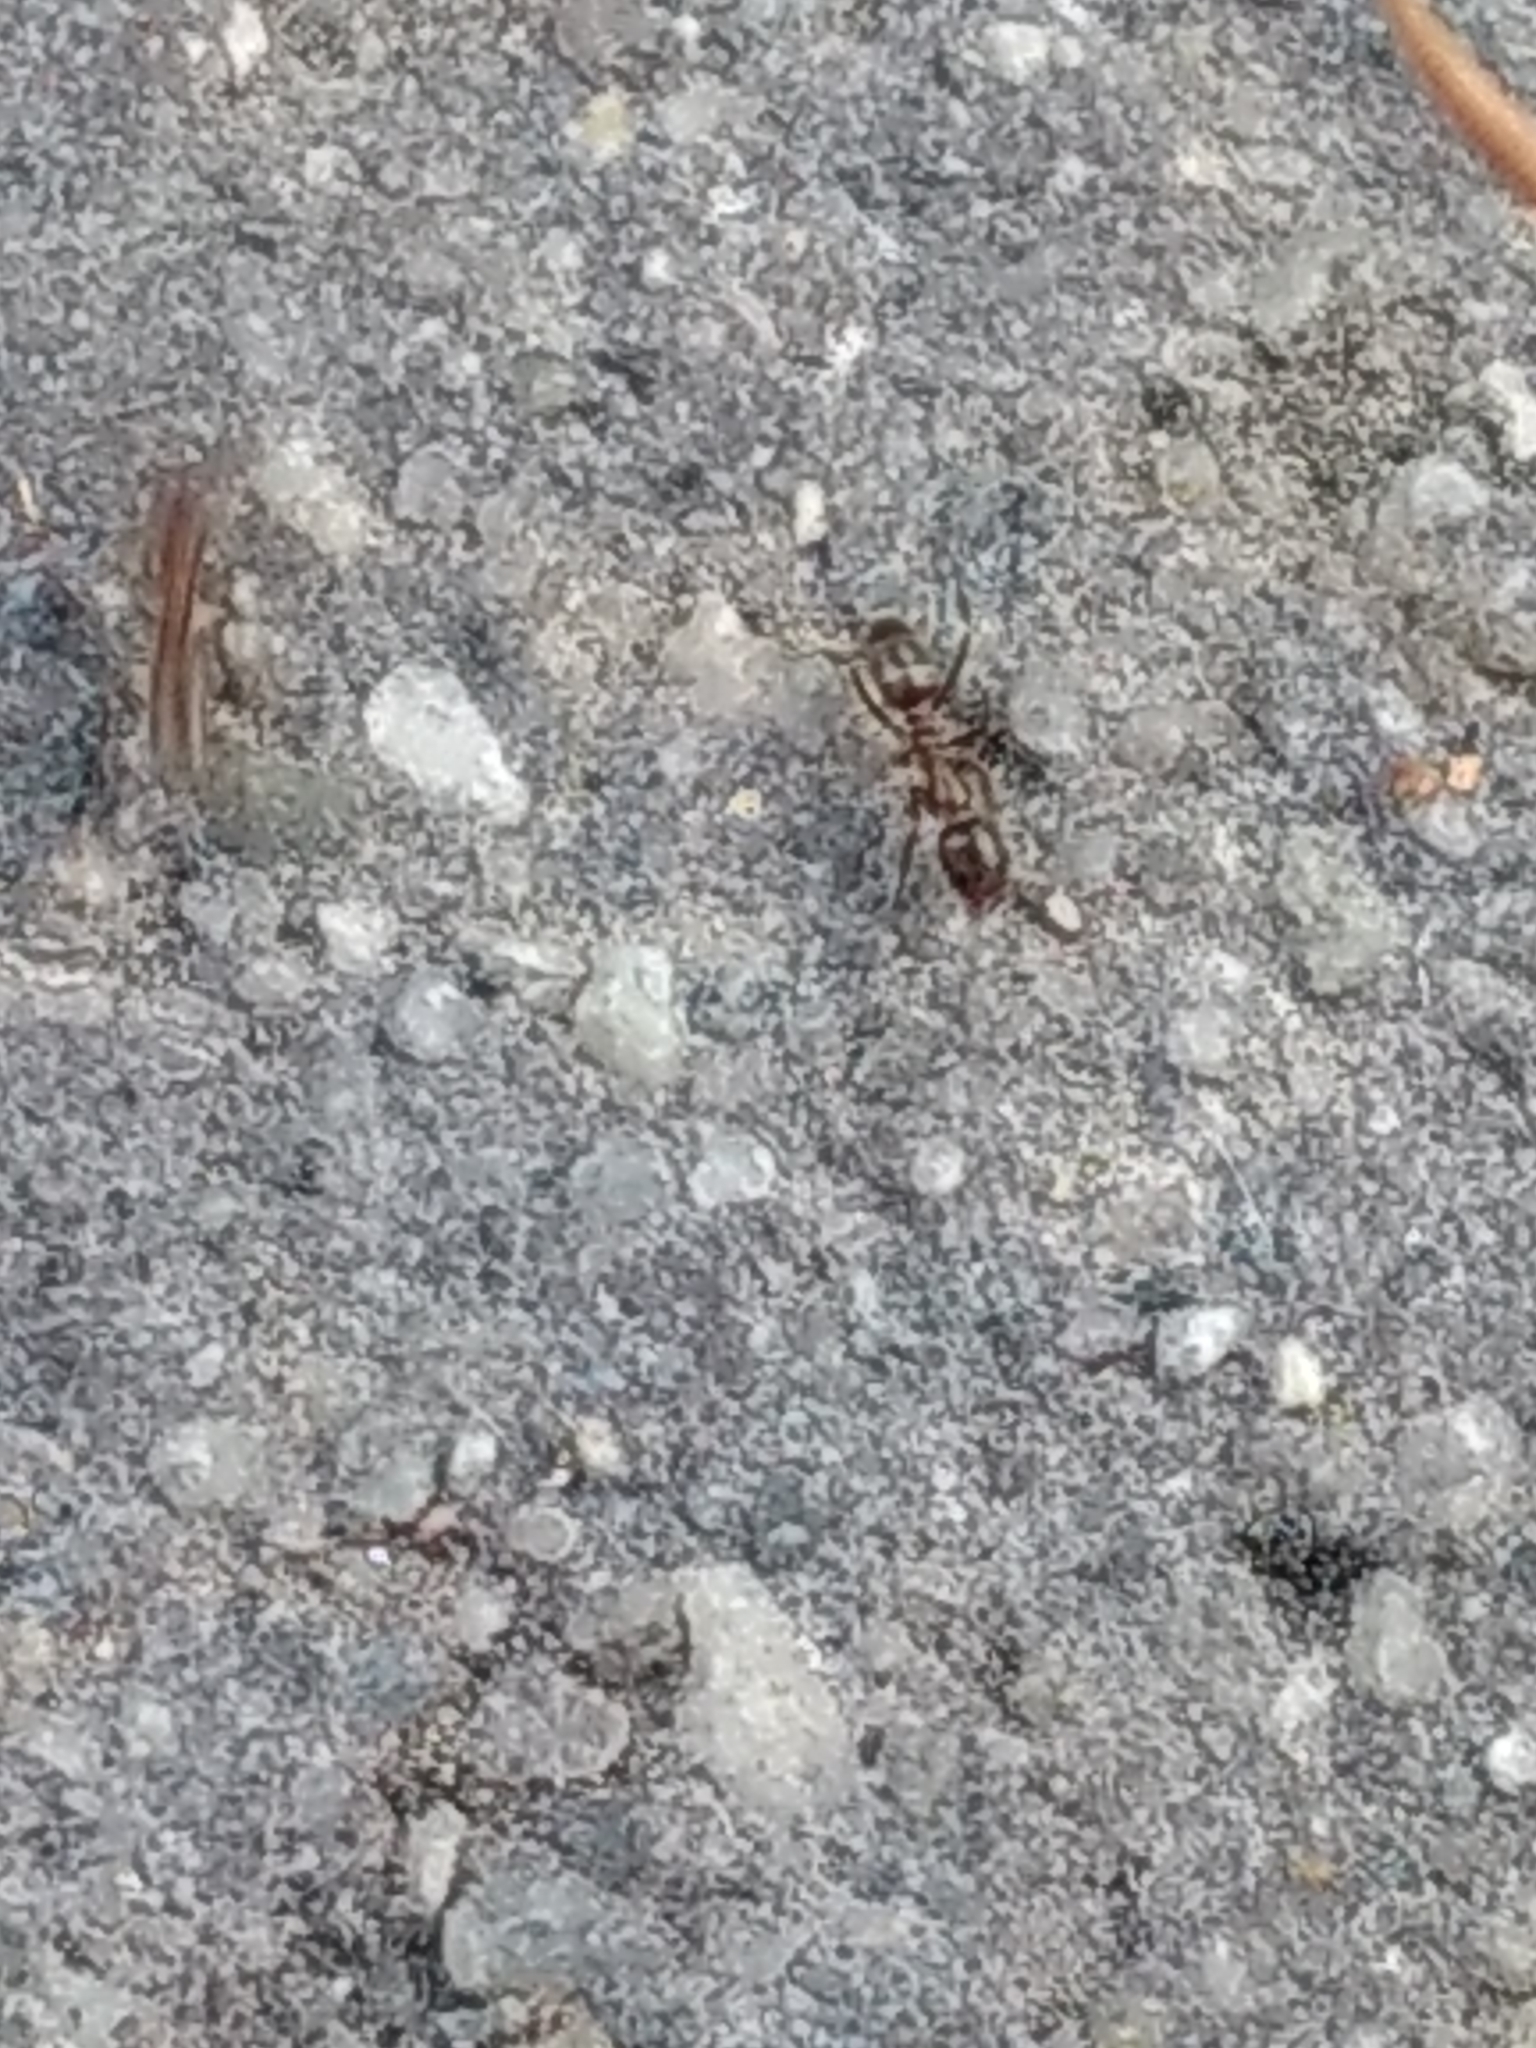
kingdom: Animalia
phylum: Arthropoda
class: Insecta
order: Hymenoptera
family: Formicidae
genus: Linepithema
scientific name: Linepithema humile
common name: Argentine ant
